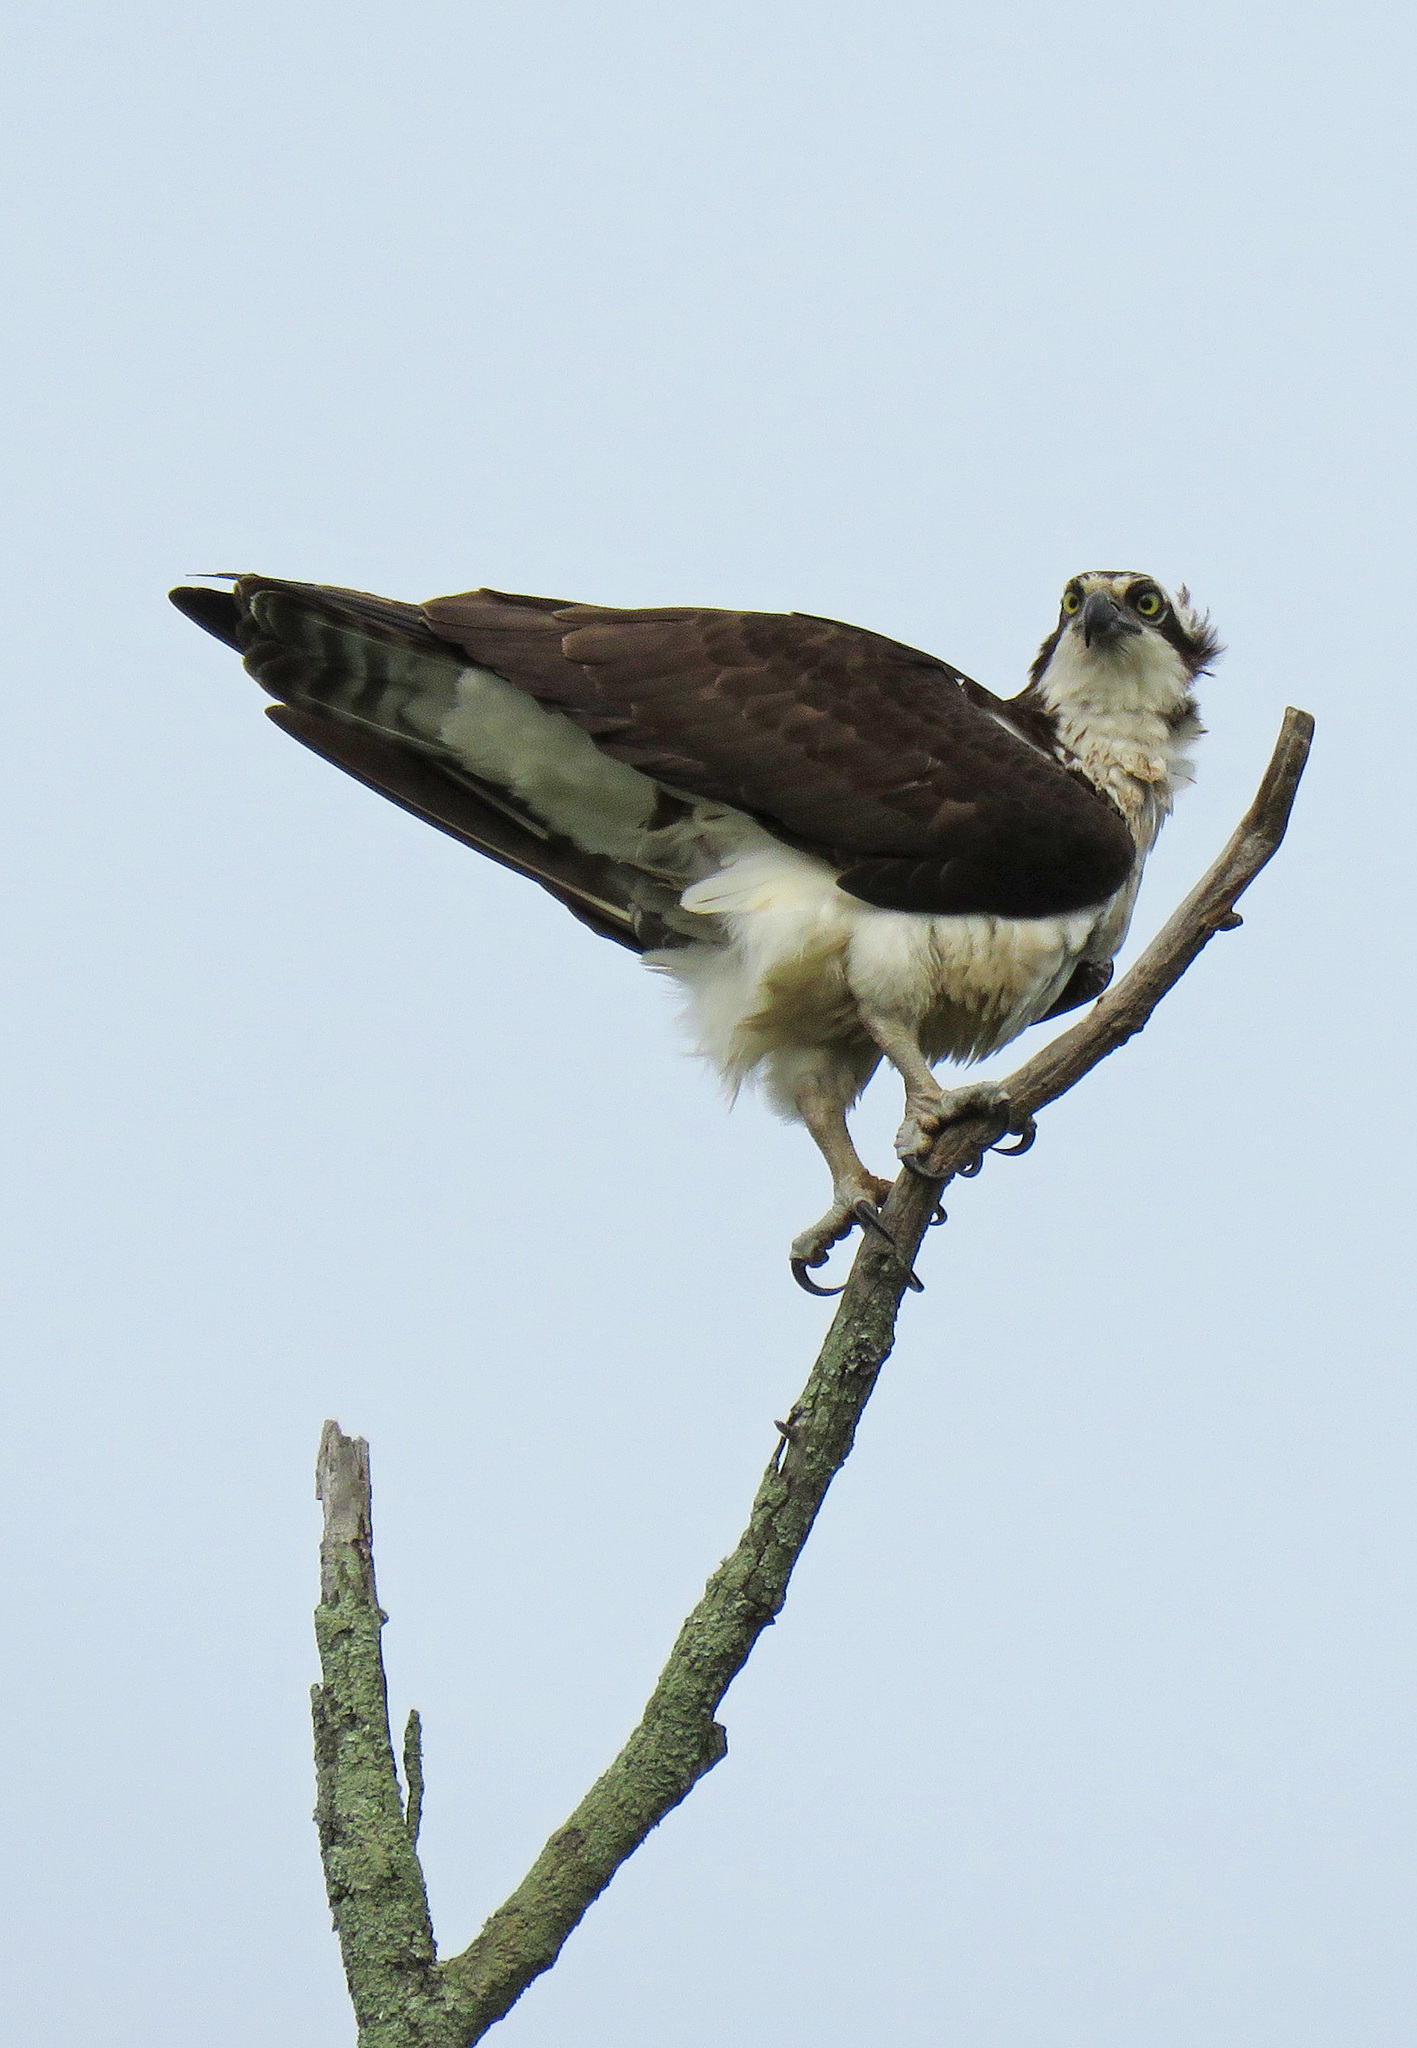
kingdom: Animalia
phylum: Chordata
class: Aves
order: Accipitriformes
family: Pandionidae
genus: Pandion
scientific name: Pandion haliaetus
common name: Osprey
